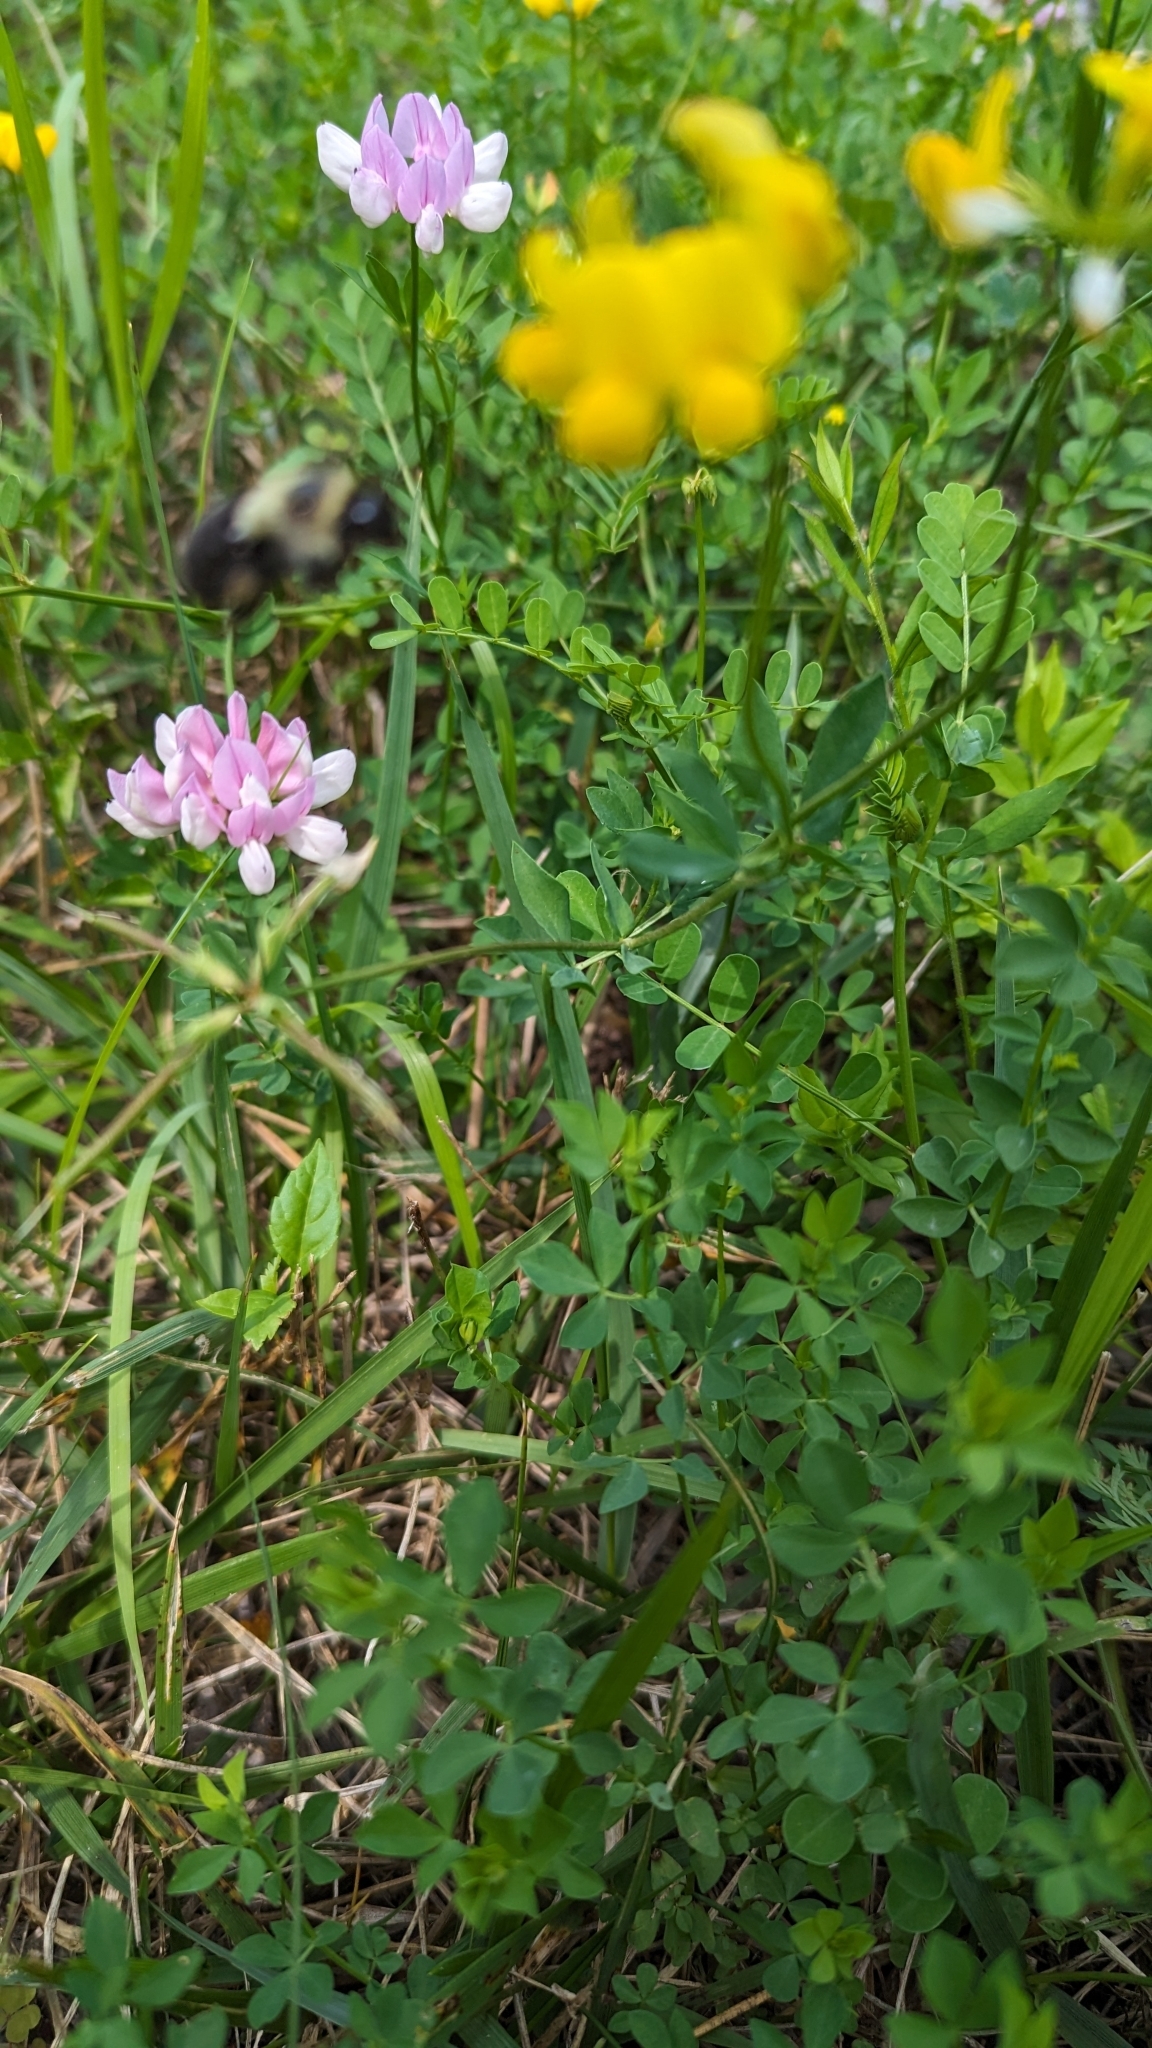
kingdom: Animalia
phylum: Arthropoda
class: Insecta
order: Hymenoptera
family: Apidae
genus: Bombus
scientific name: Bombus impatiens
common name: Common eastern bumble bee
